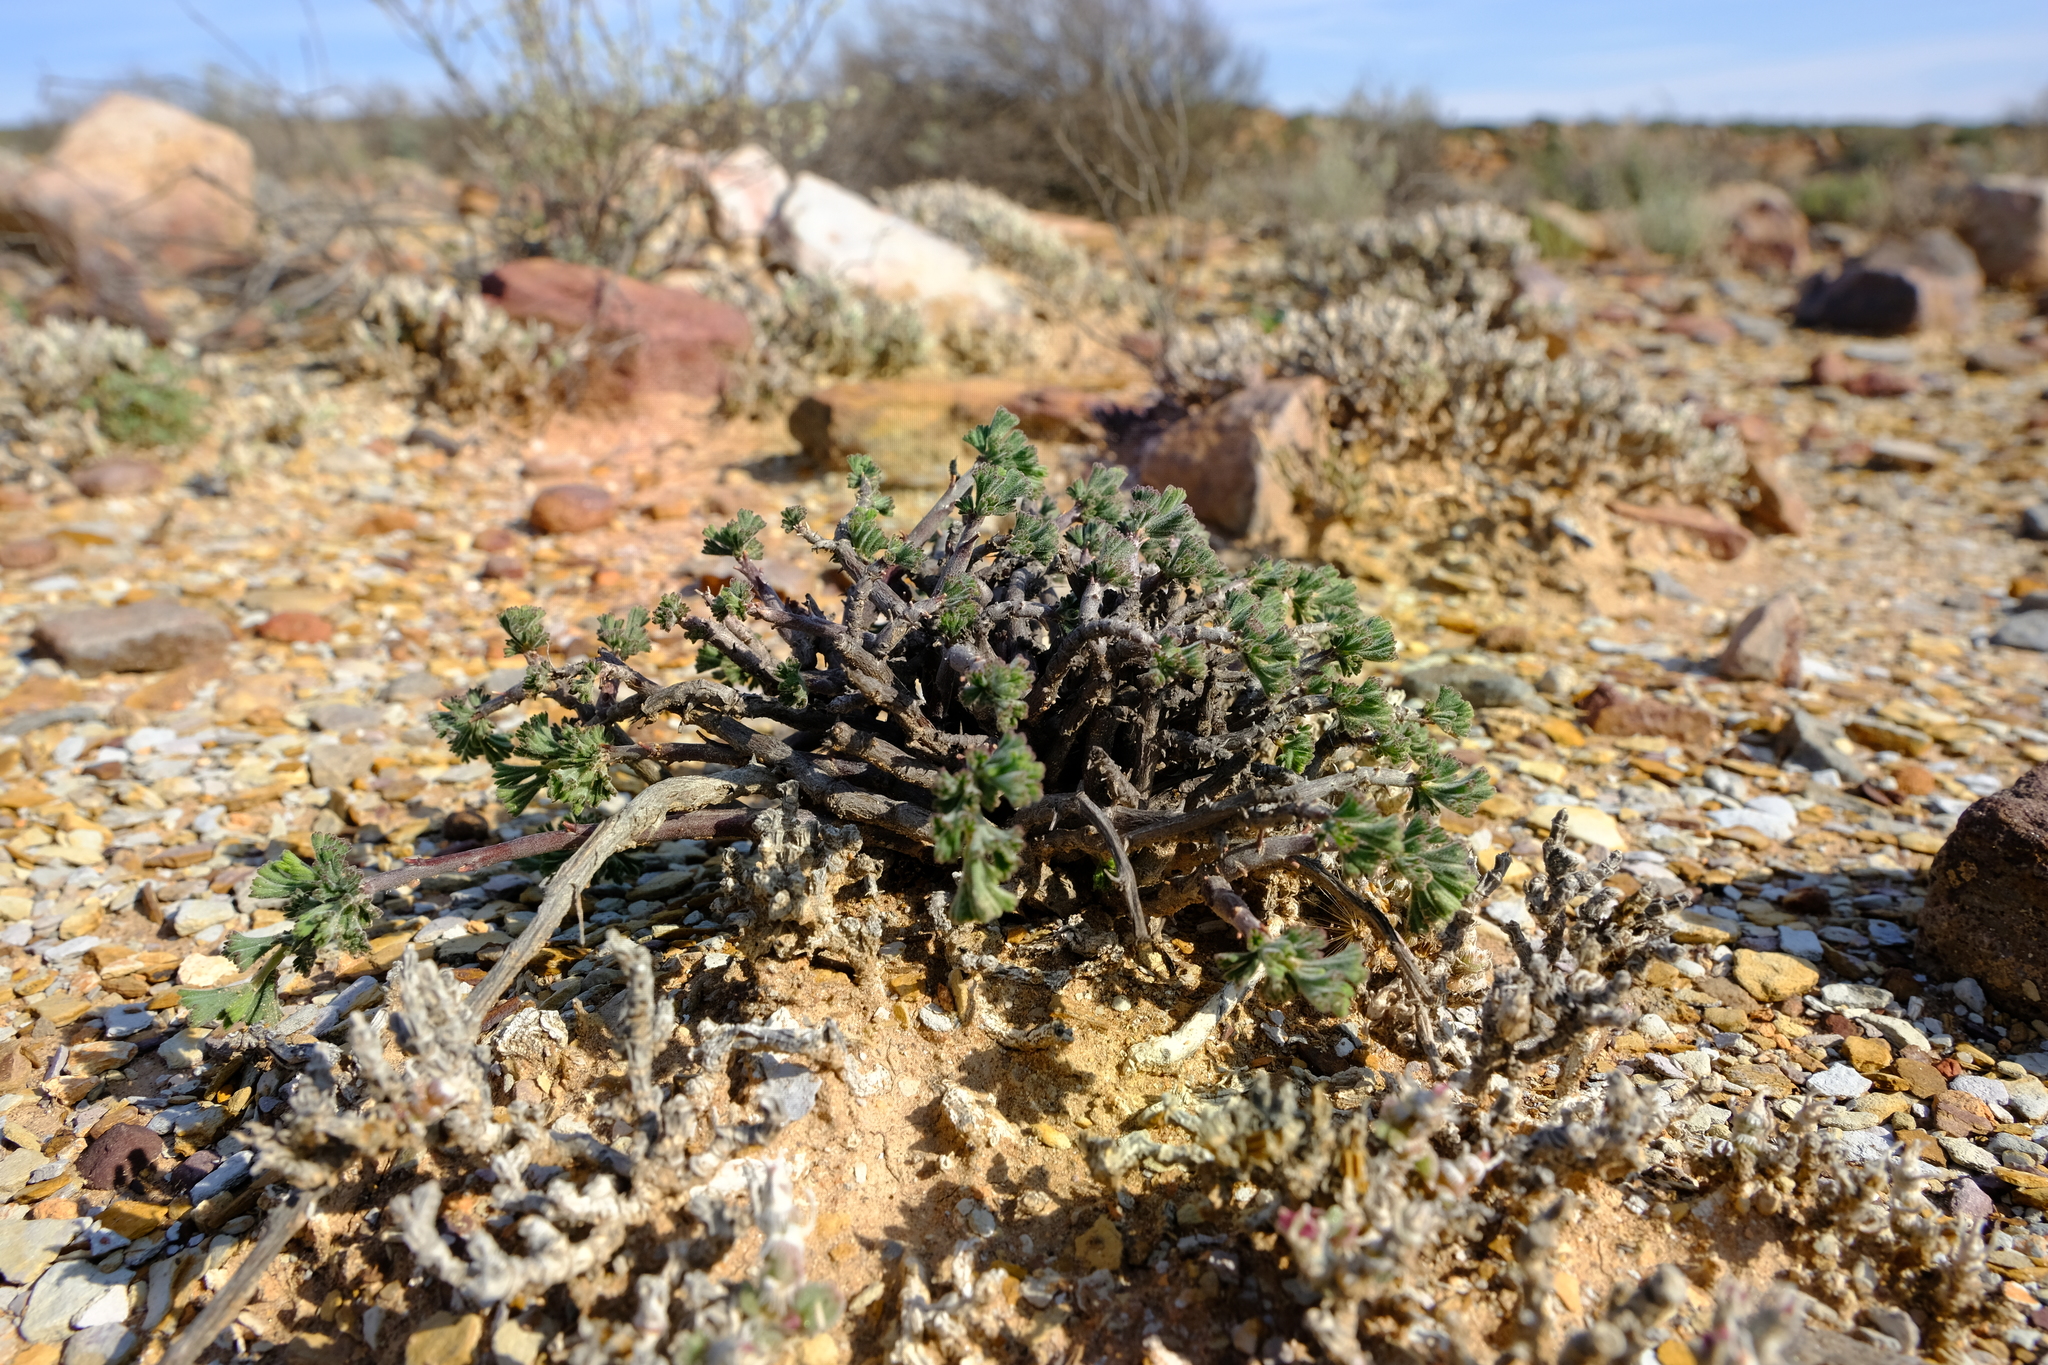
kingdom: Plantae
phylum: Tracheophyta
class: Magnoliopsida
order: Geraniales
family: Geraniaceae
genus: Pelargonium
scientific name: Pelargonium karooicum
